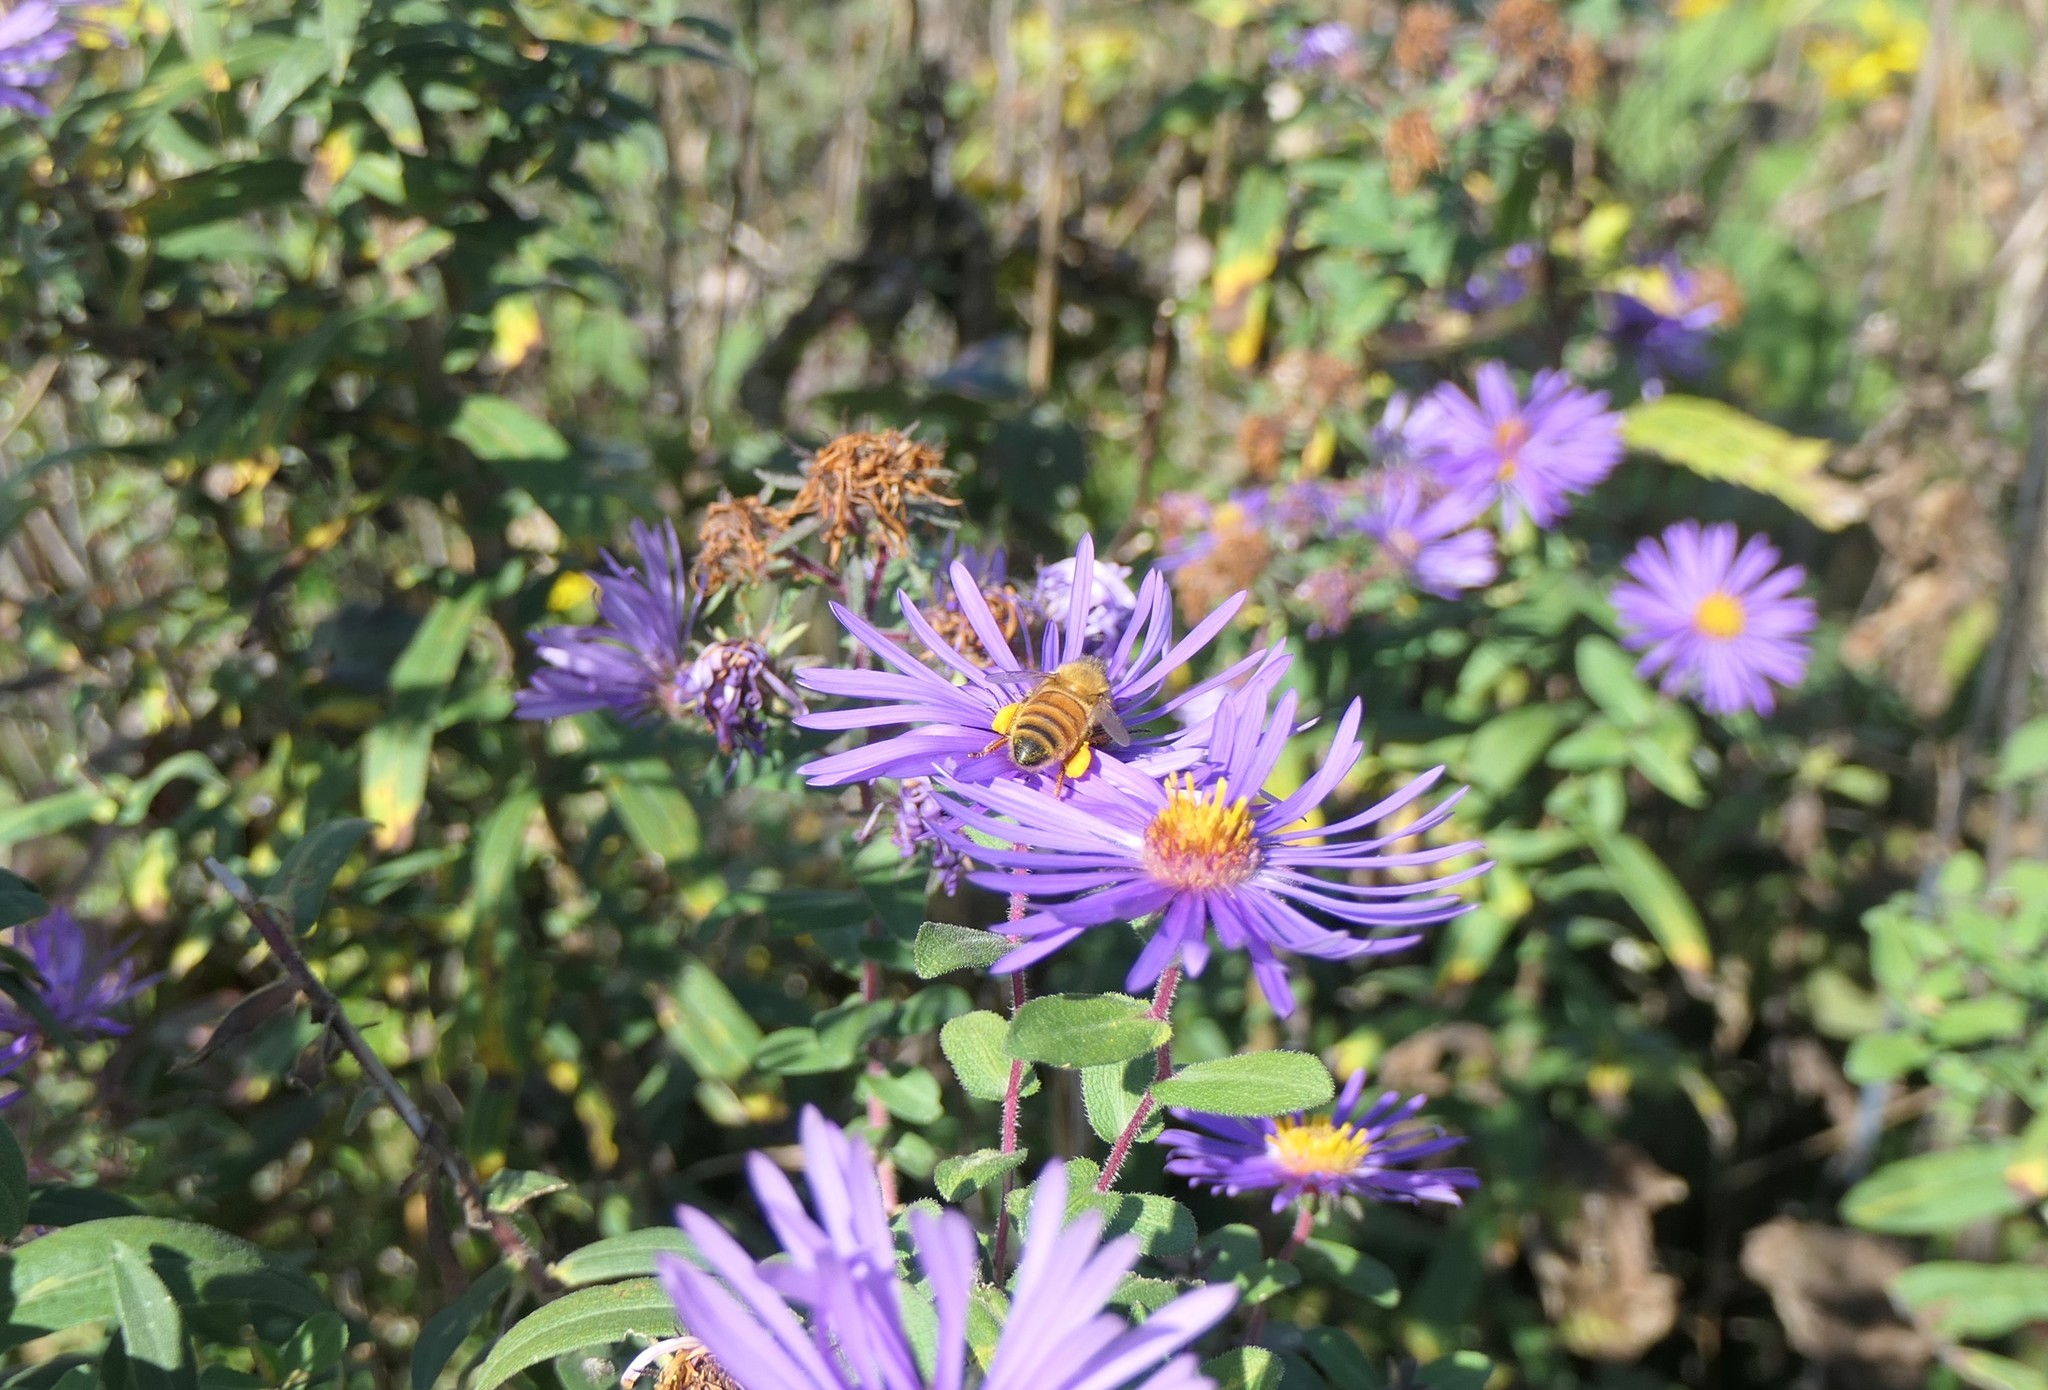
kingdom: Animalia
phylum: Arthropoda
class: Insecta
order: Hymenoptera
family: Apidae
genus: Apis
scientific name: Apis mellifera
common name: Honey bee
